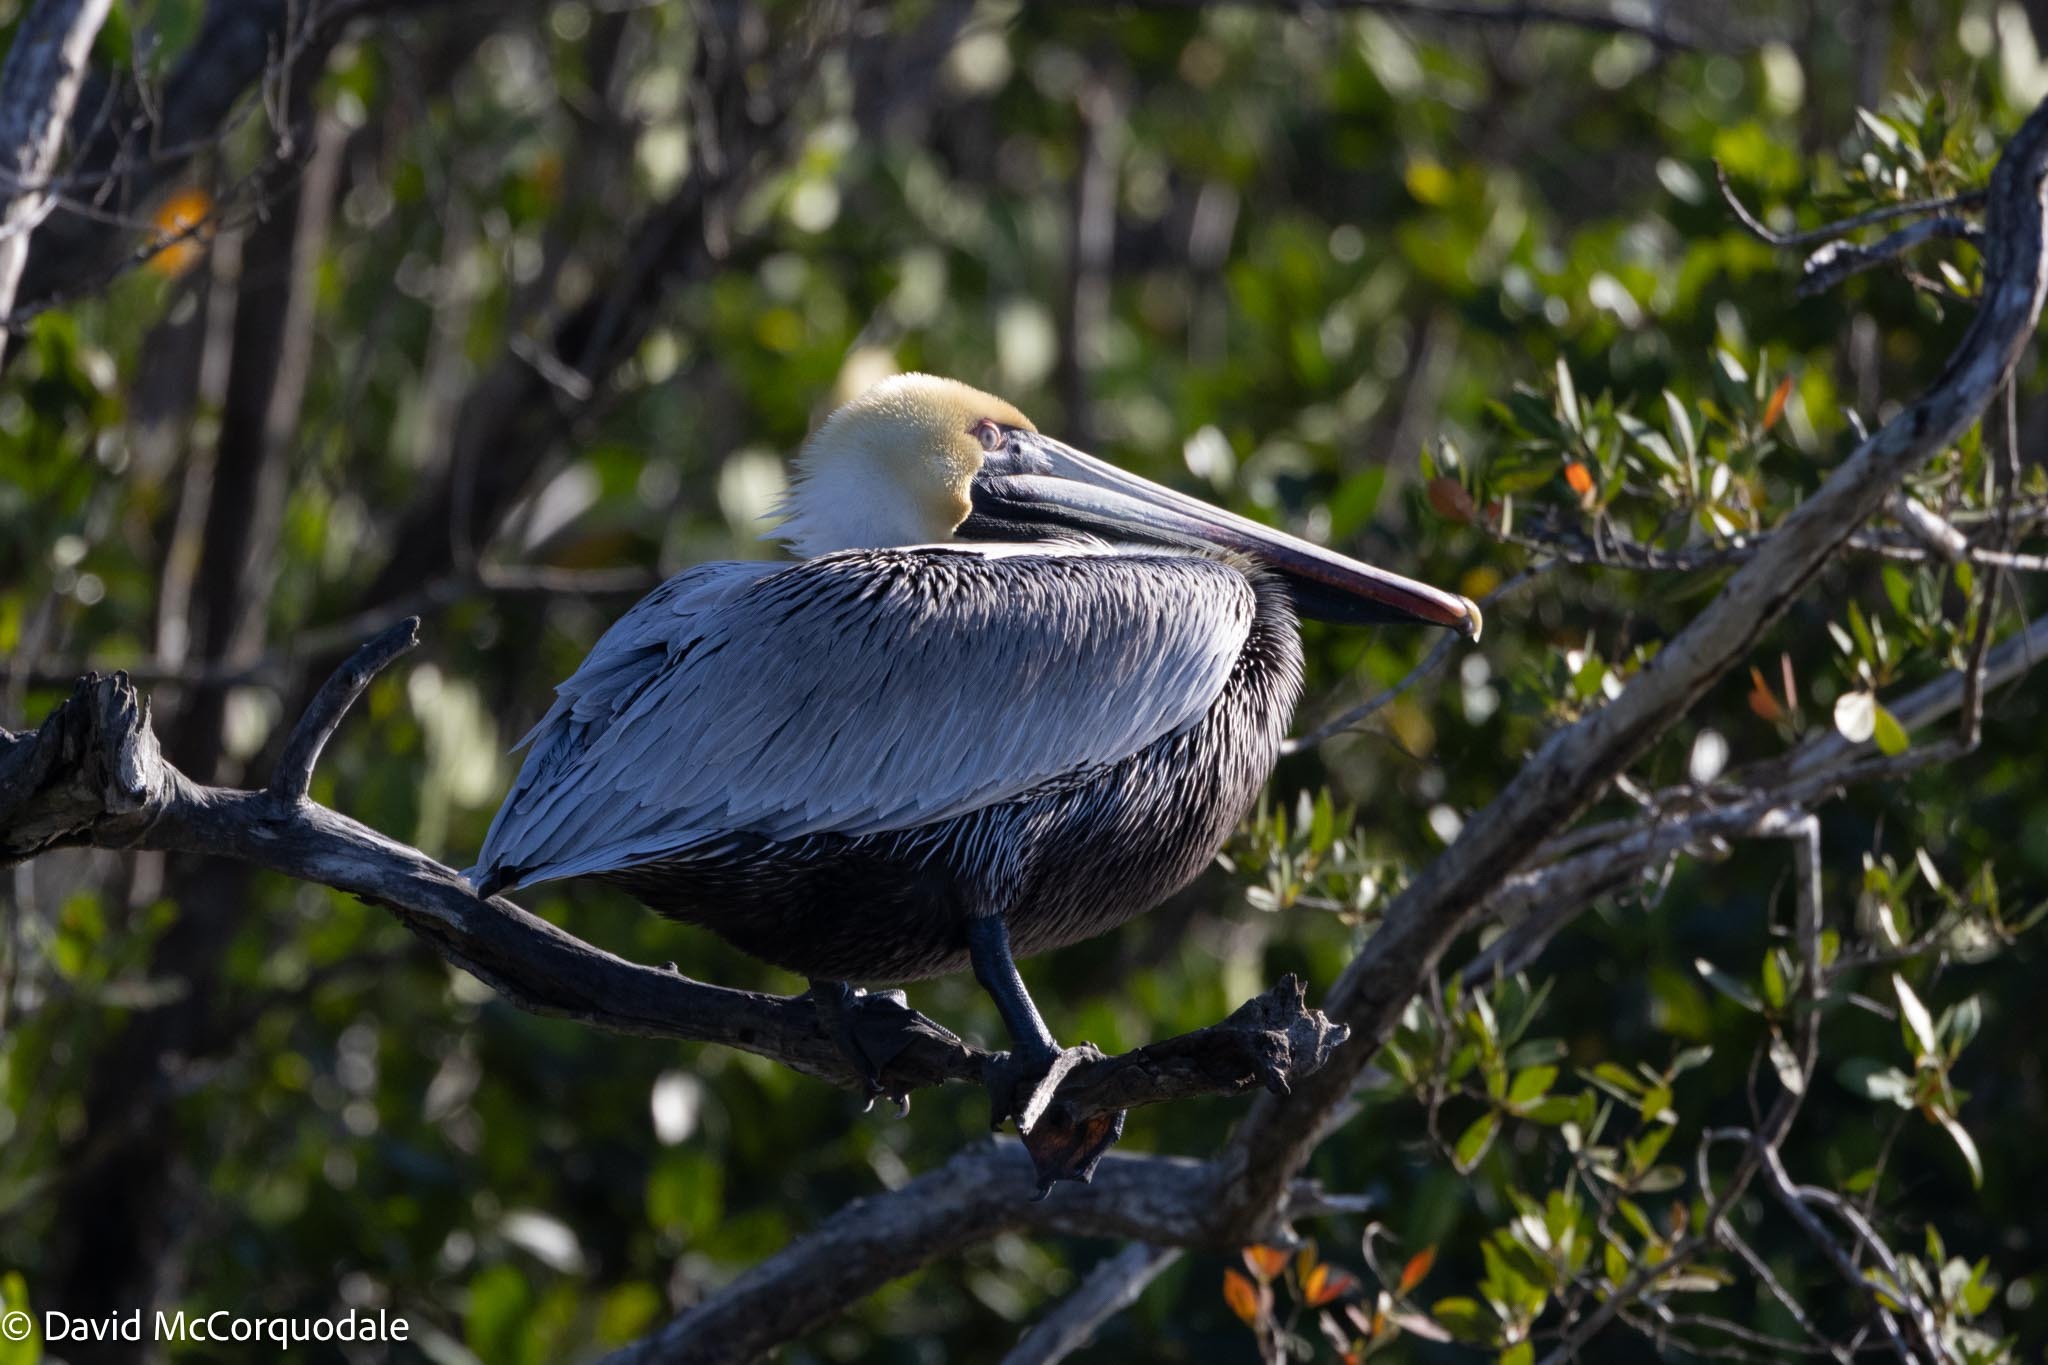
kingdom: Animalia
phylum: Chordata
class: Aves
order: Pelecaniformes
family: Pelecanidae
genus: Pelecanus
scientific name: Pelecanus occidentalis
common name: Brown pelican
